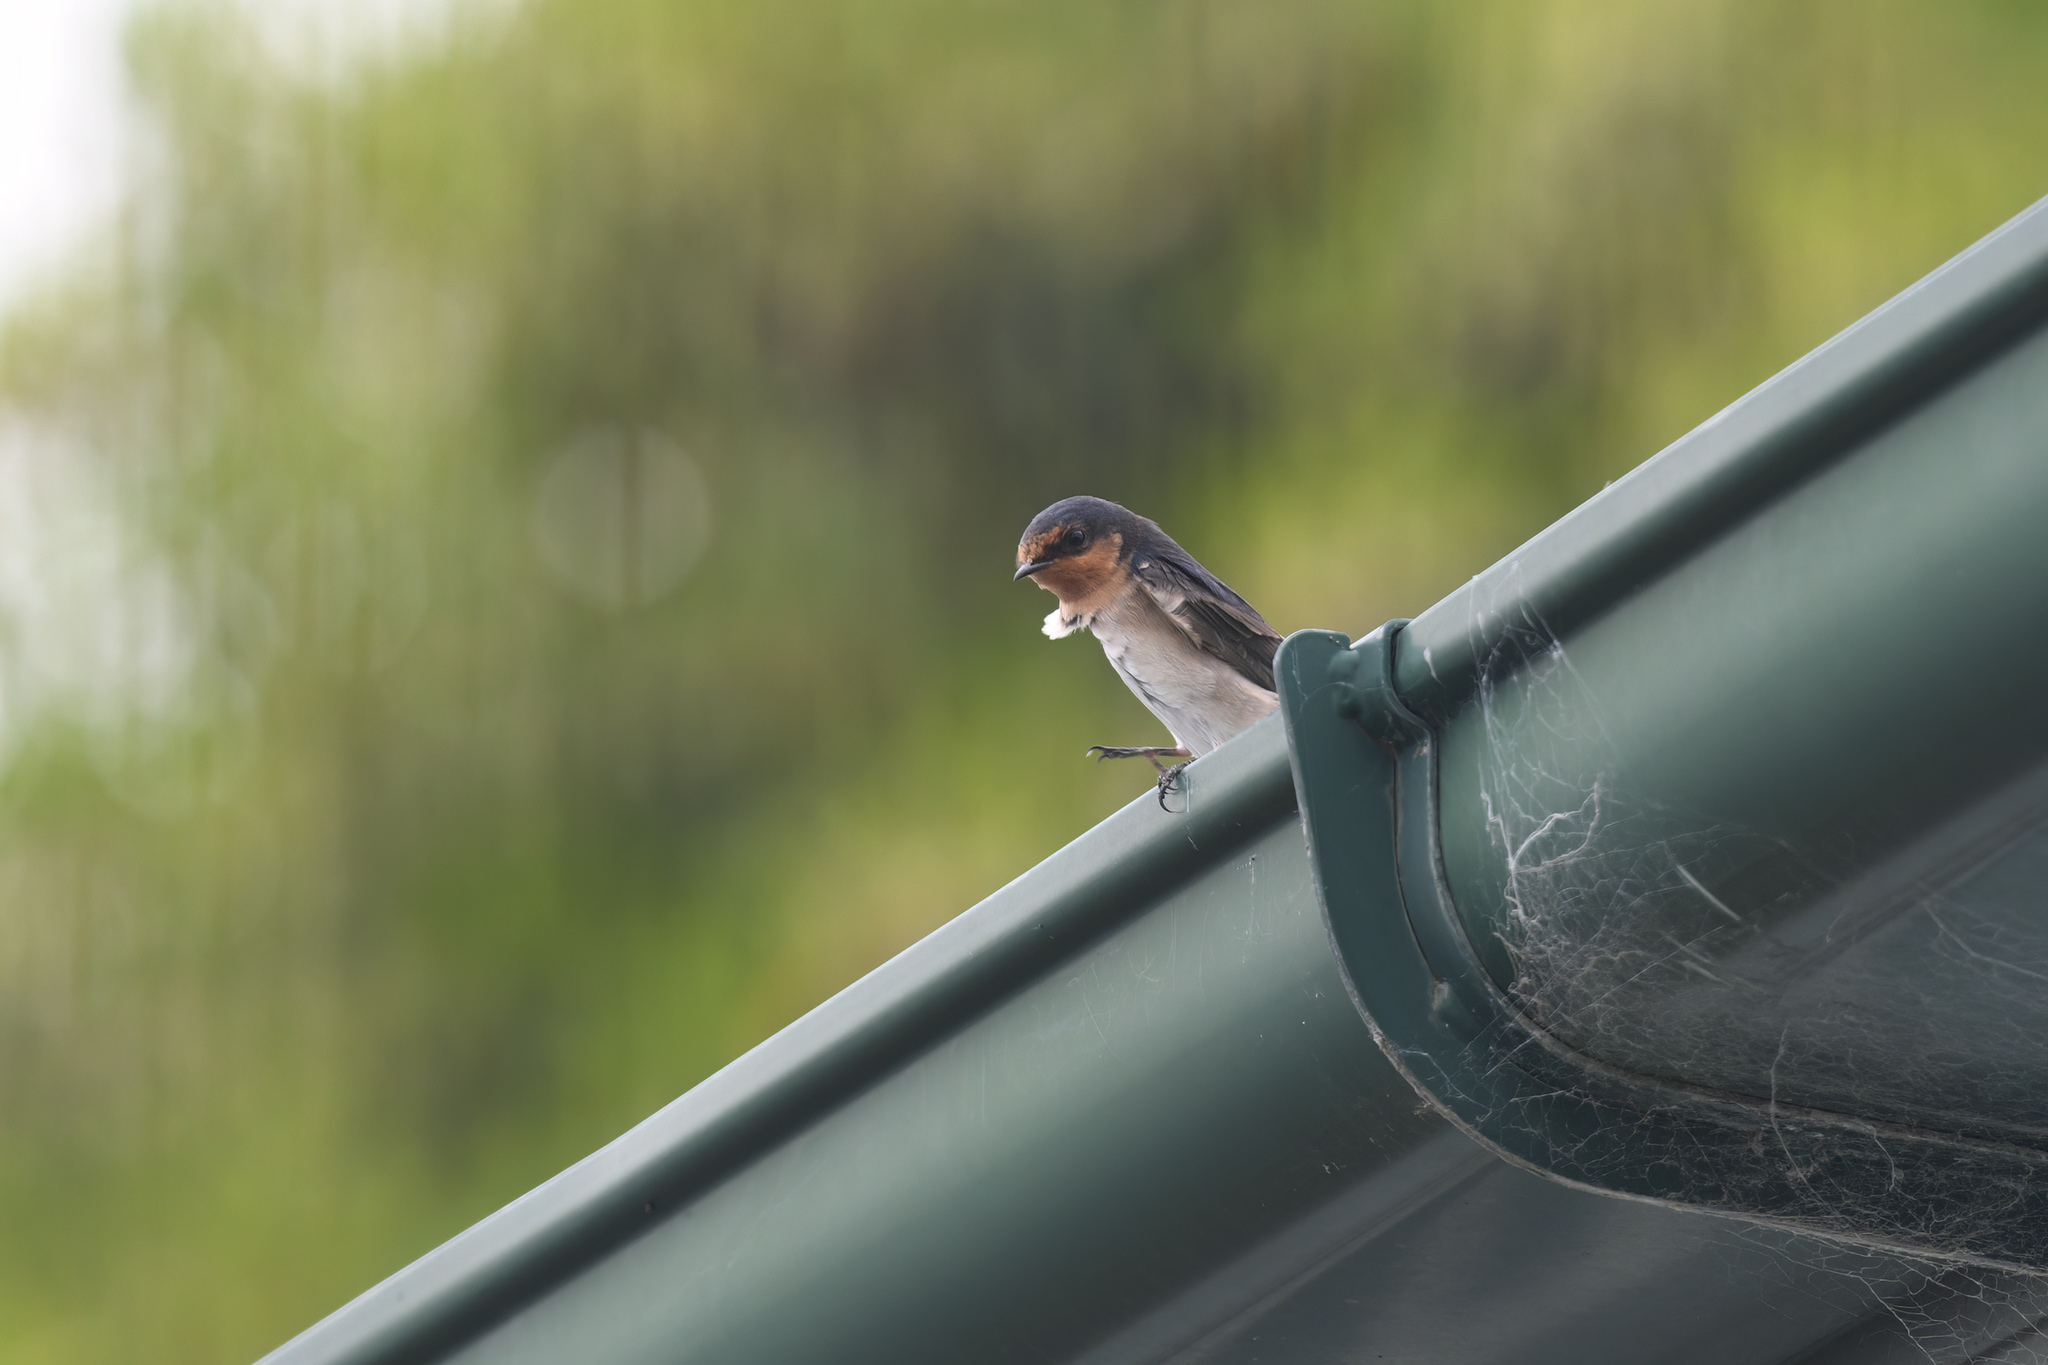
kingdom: Animalia
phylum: Chordata
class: Aves
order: Passeriformes
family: Hirundinidae
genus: Hirundo
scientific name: Hirundo neoxena
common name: Welcome swallow
